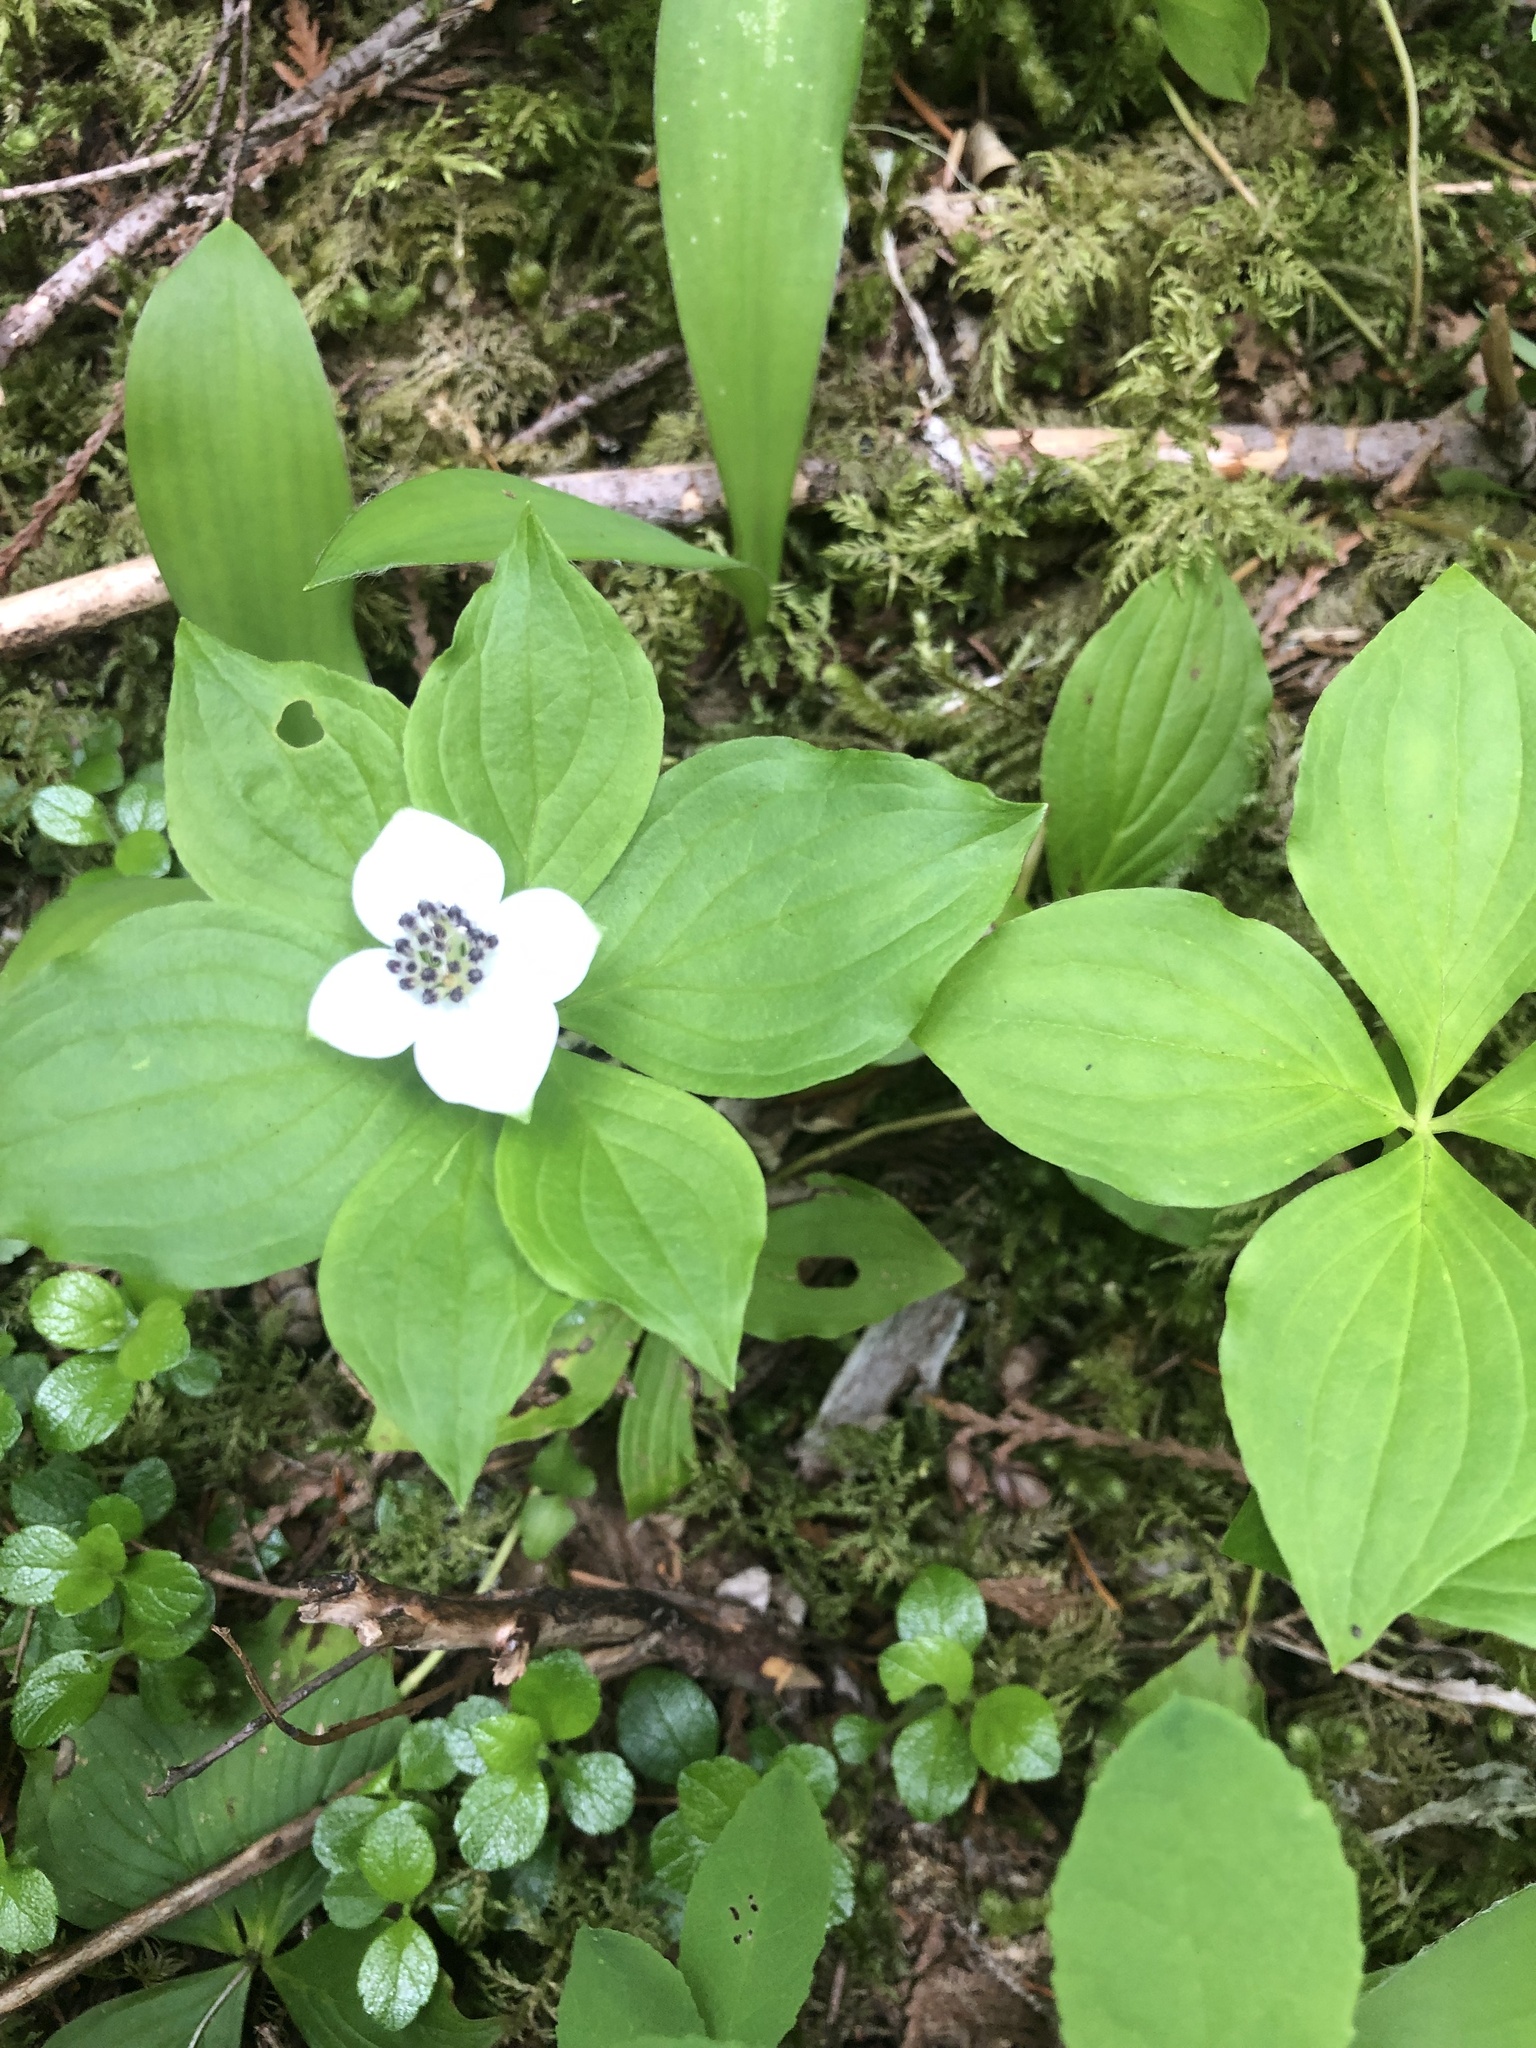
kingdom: Plantae
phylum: Tracheophyta
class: Magnoliopsida
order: Cornales
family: Cornaceae
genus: Cornus
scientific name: Cornus unalaschkensis
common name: Alaska bunchberry
